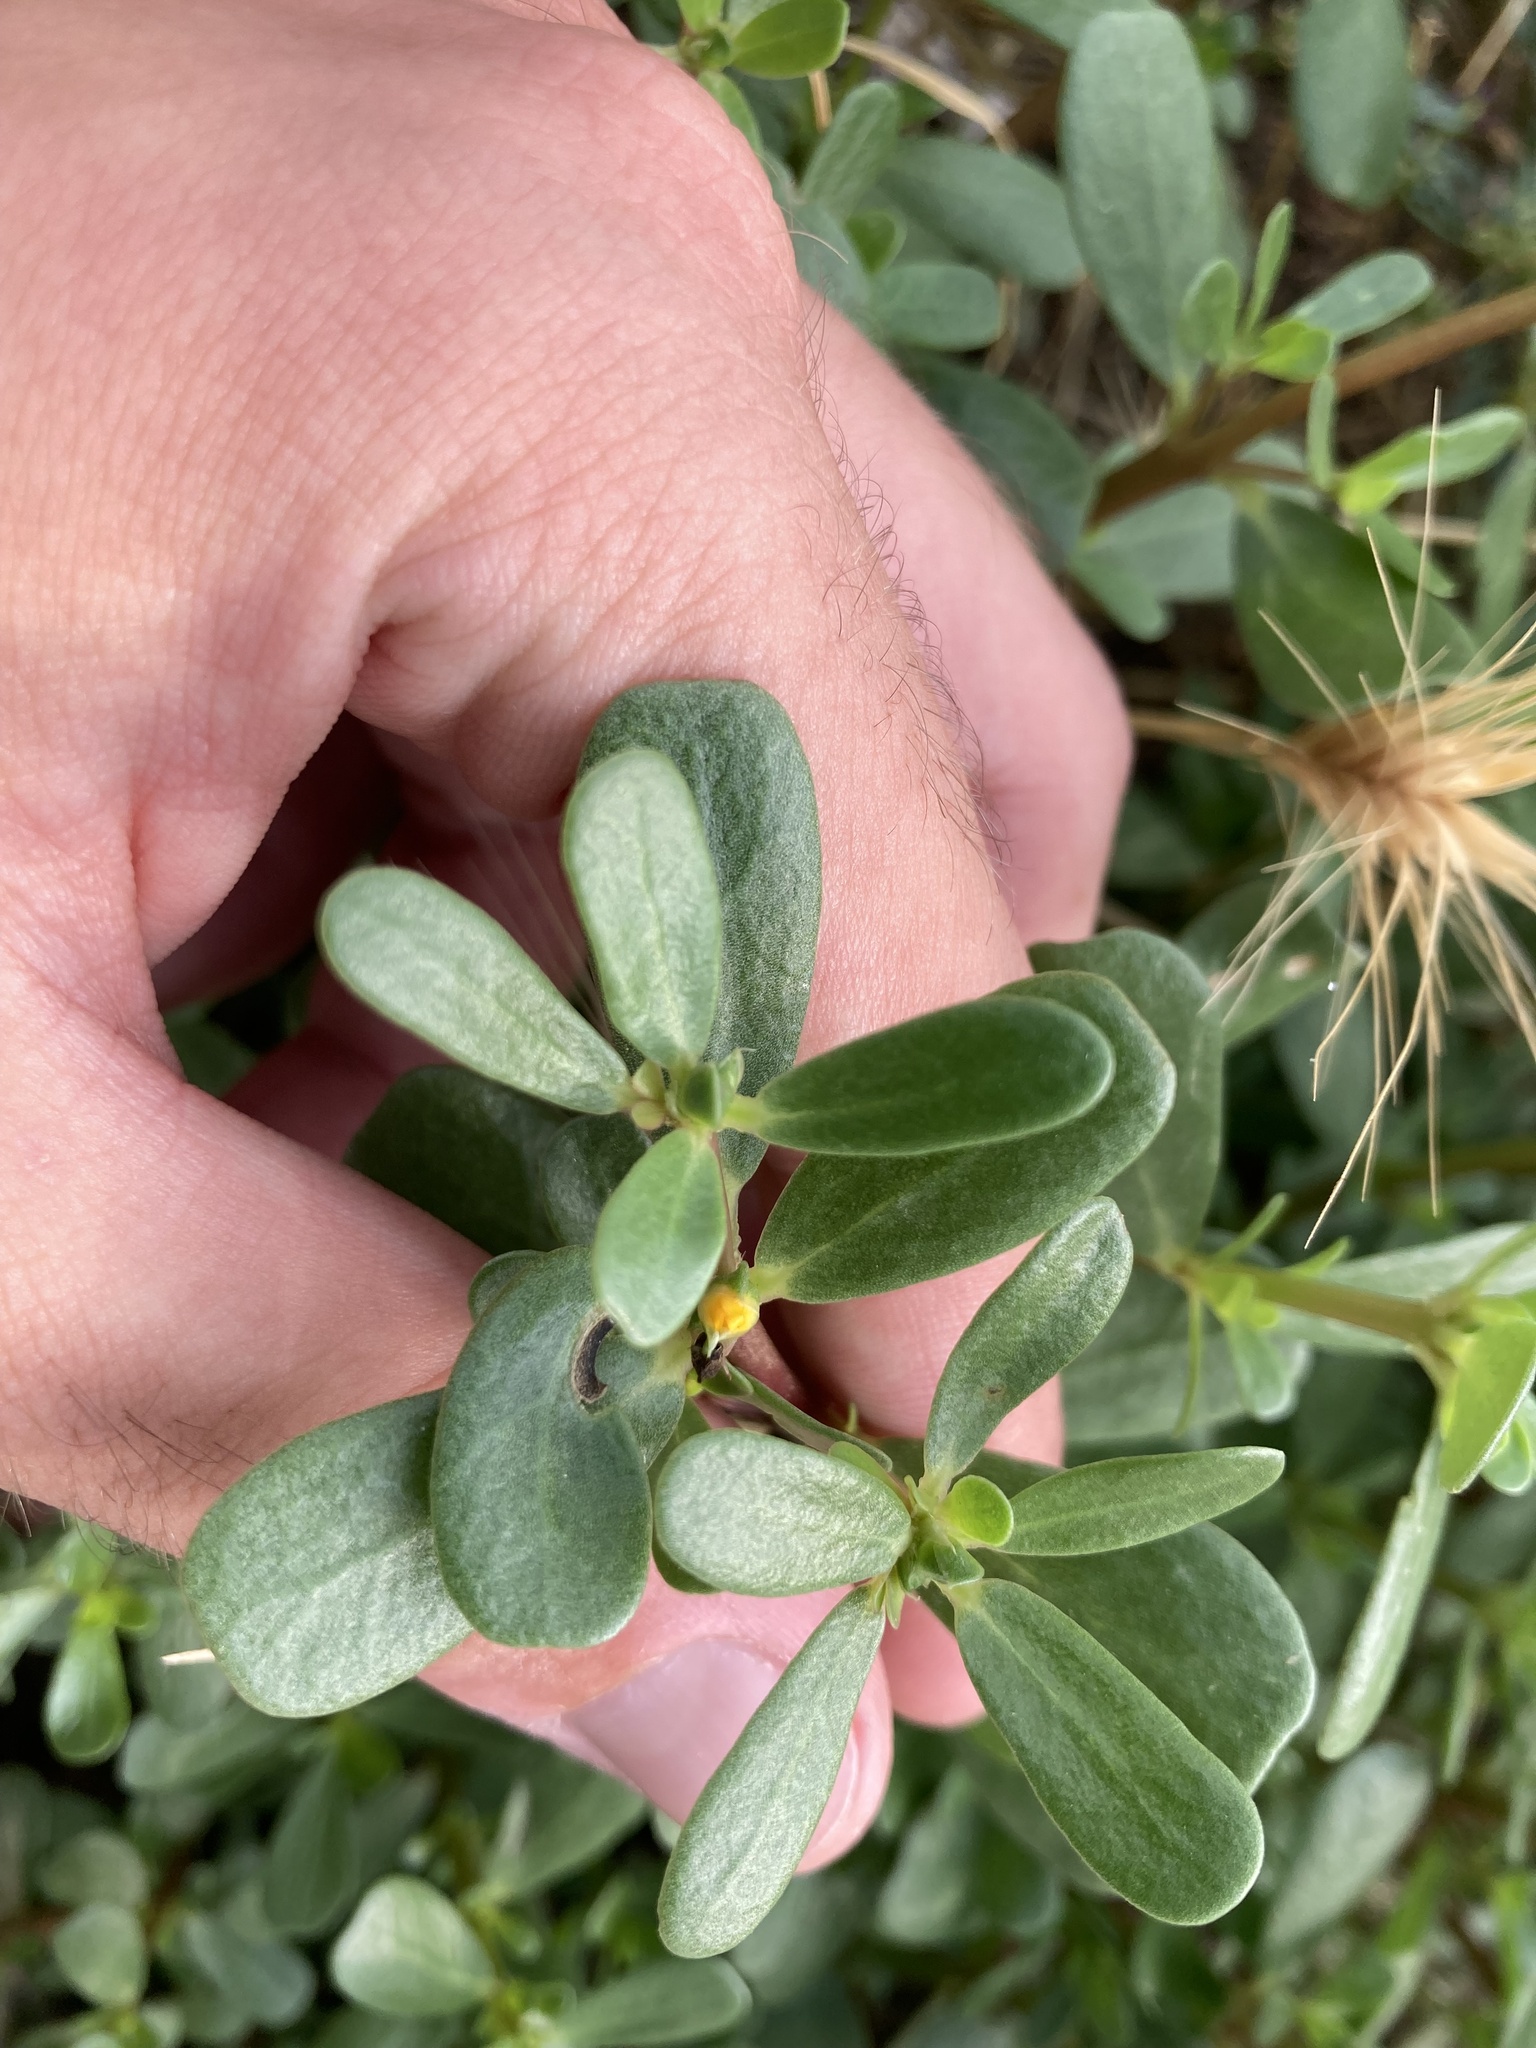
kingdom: Plantae
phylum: Tracheophyta
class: Magnoliopsida
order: Caryophyllales
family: Portulacaceae
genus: Portulaca
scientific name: Portulaca oleracea
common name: Common purslane
